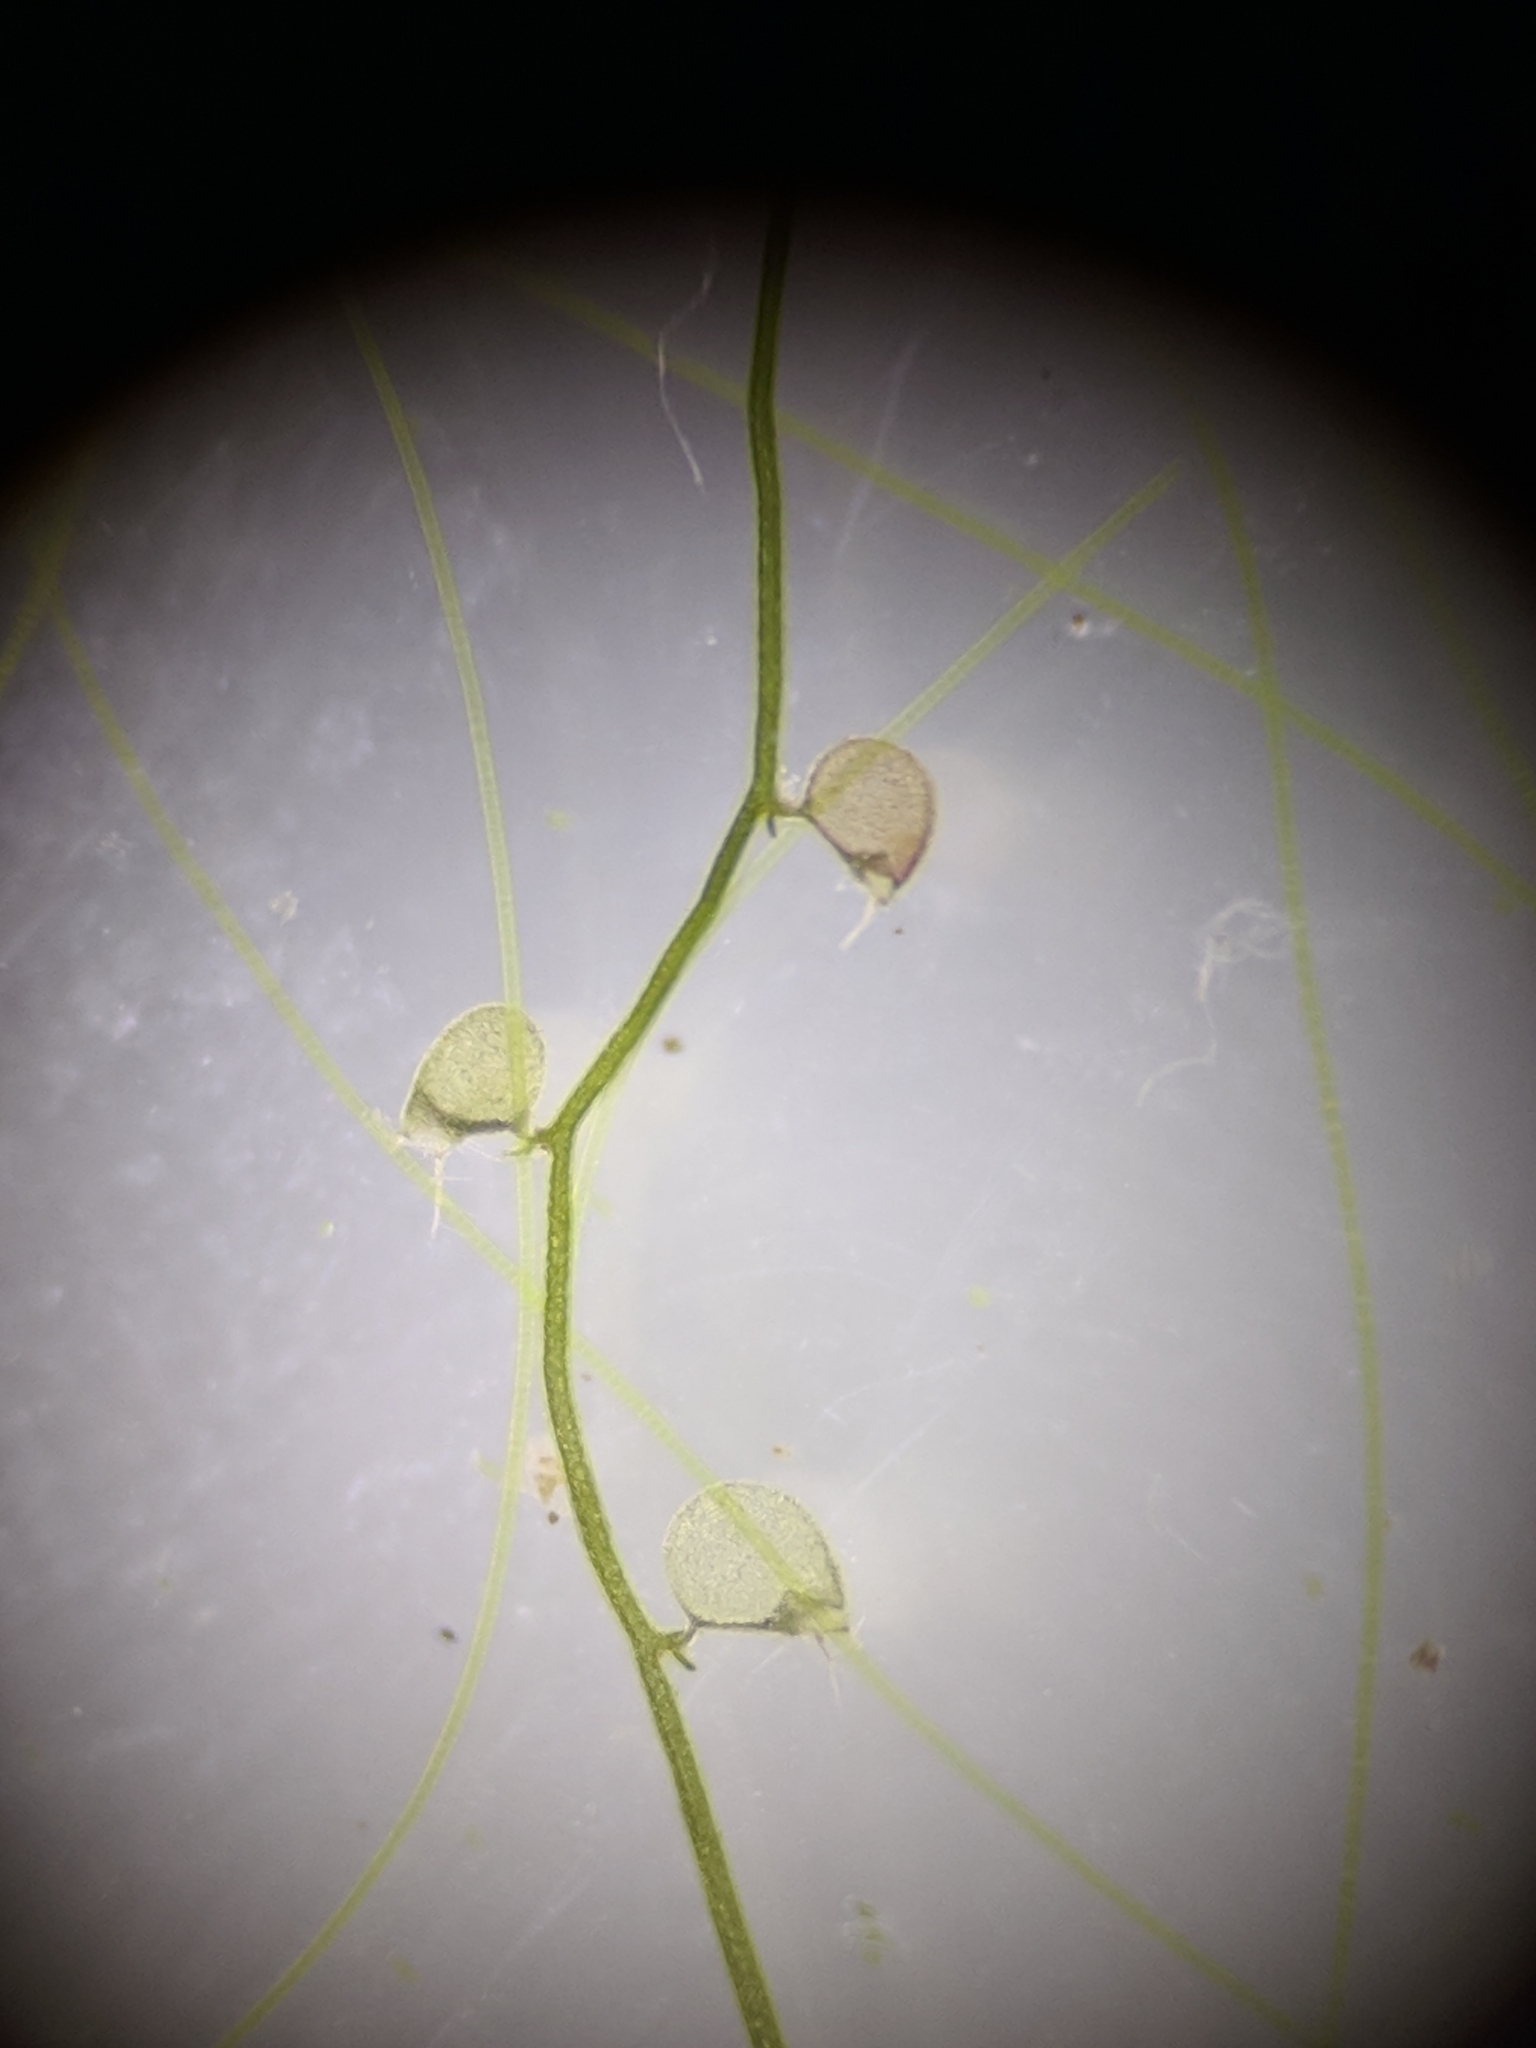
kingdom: Plantae
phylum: Tracheophyta
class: Magnoliopsida
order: Lamiales
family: Lentibulariaceae
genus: Utricularia
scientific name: Utricularia gibba
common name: Humped bladderwort
